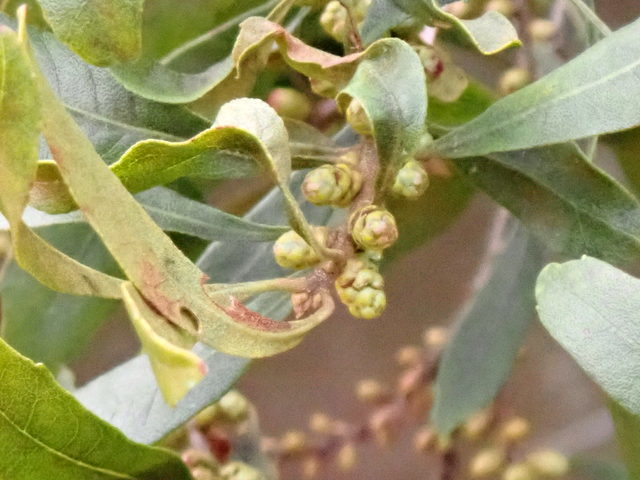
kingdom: Plantae
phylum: Tracheophyta
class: Magnoliopsida
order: Fagales
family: Myricaceae
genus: Morella
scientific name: Morella cerifera
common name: Wax myrtle
